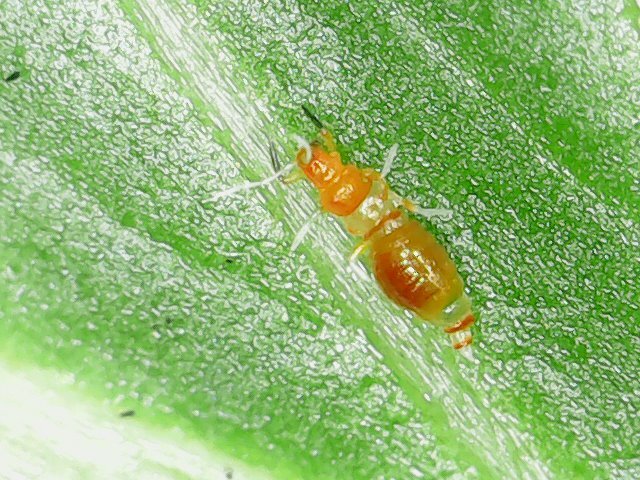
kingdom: Animalia
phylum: Arthropoda
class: Insecta
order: Thysanoptera
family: Aeolothripidae
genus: Franklinothrips
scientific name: Franklinothrips vespiformis
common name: Banded thrip
